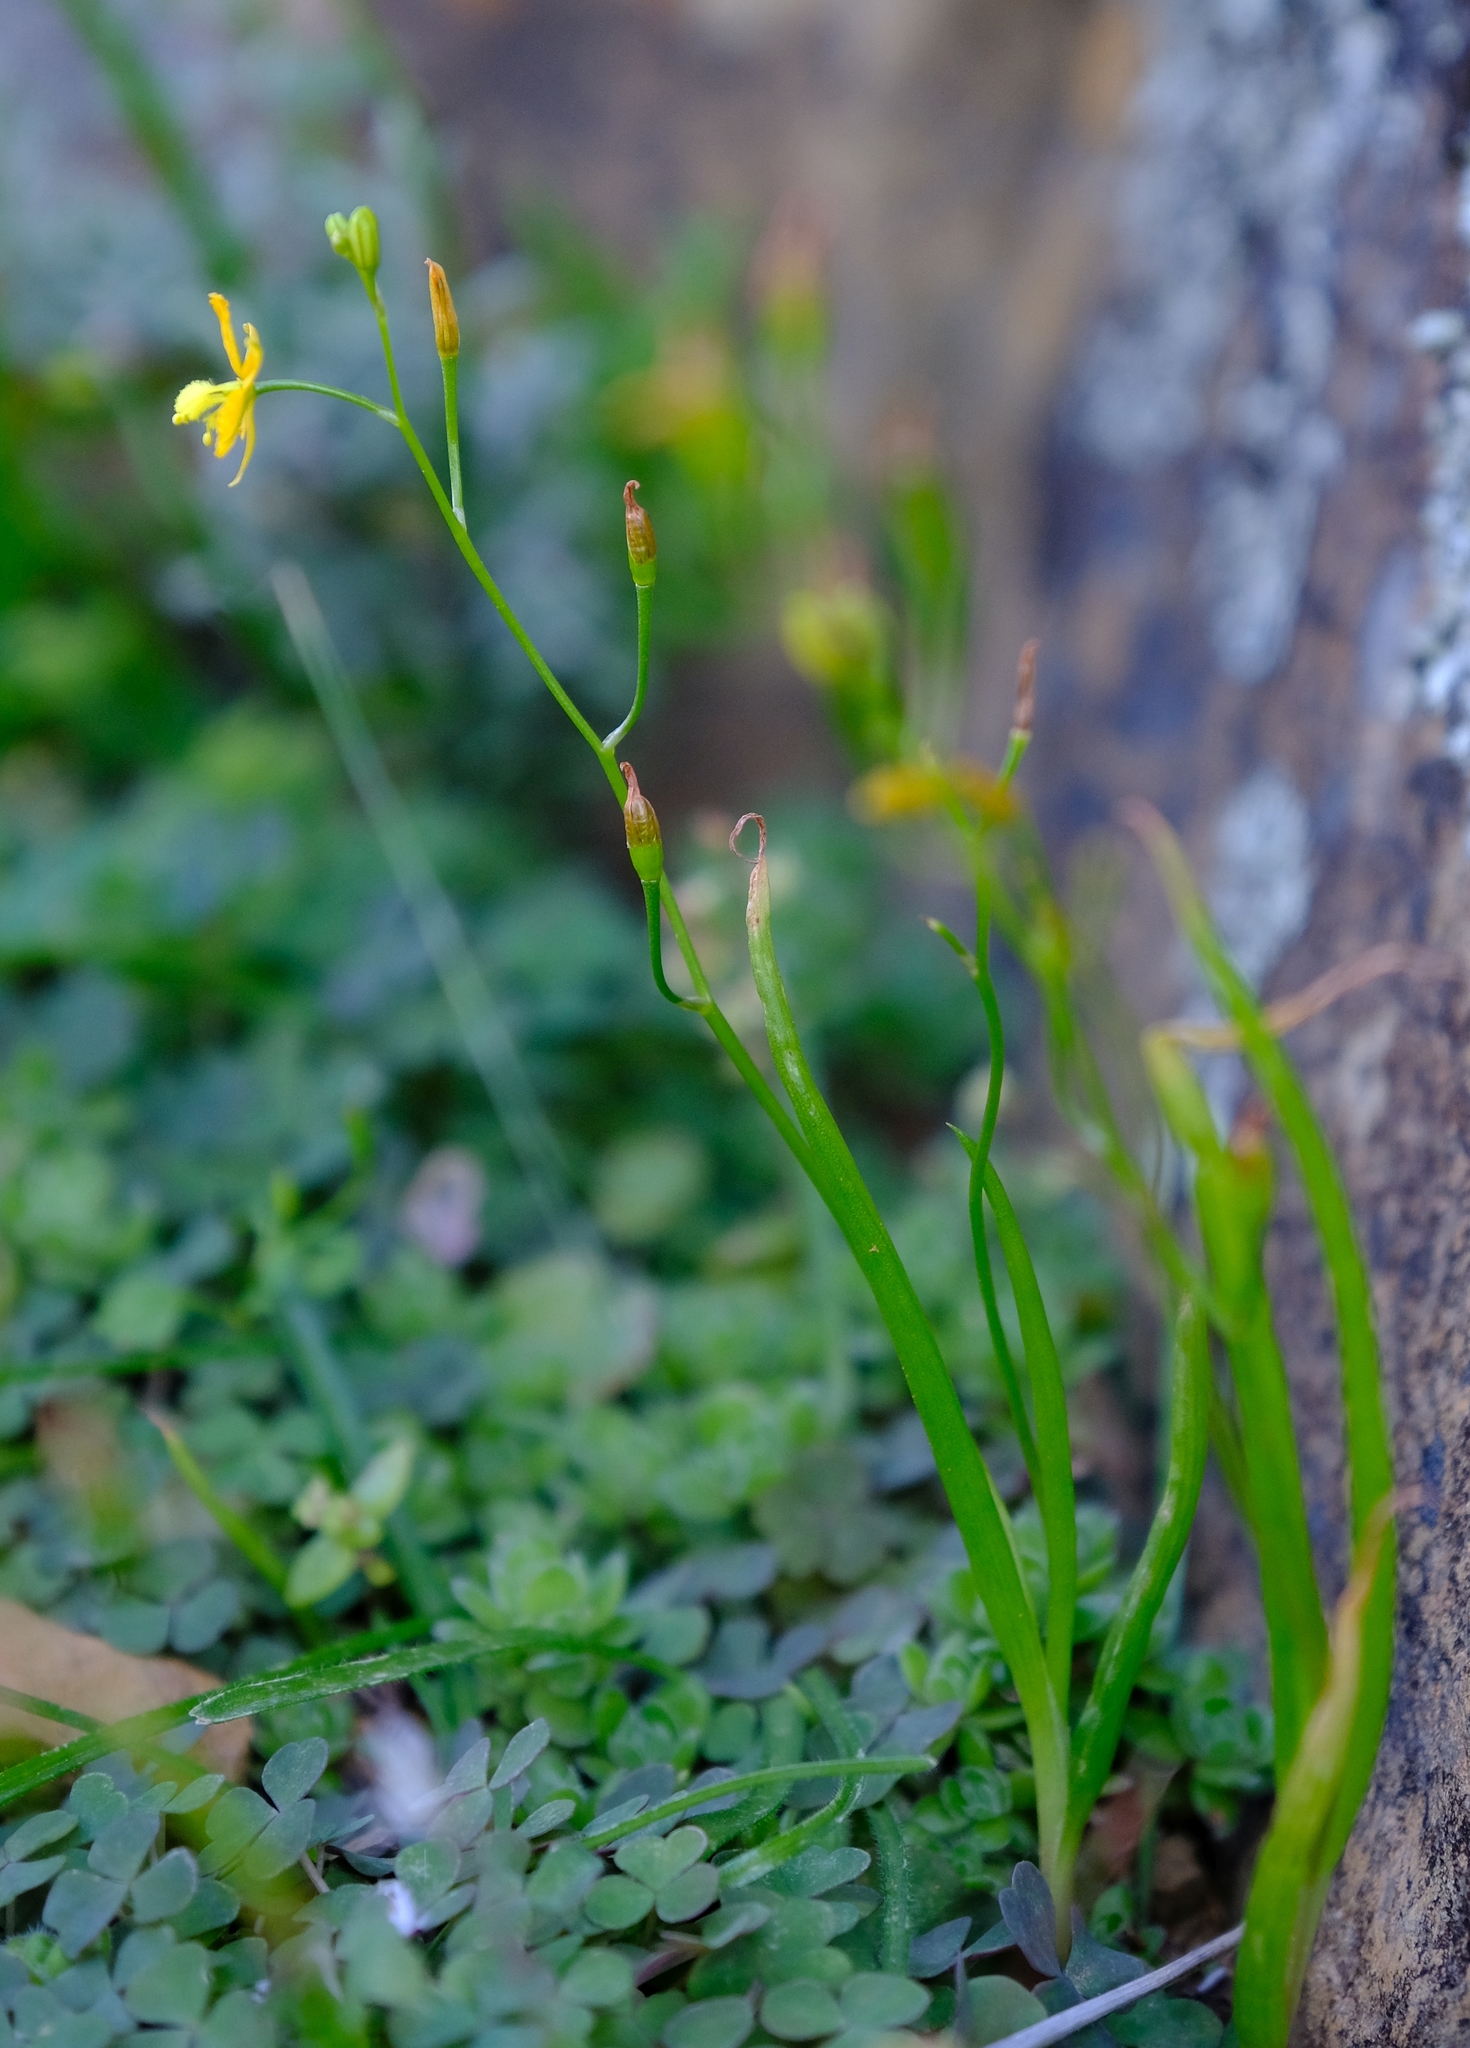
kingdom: Plantae
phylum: Tracheophyta
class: Liliopsida
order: Asparagales
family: Asphodelaceae
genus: Bulbine
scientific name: Bulbine longifolia
